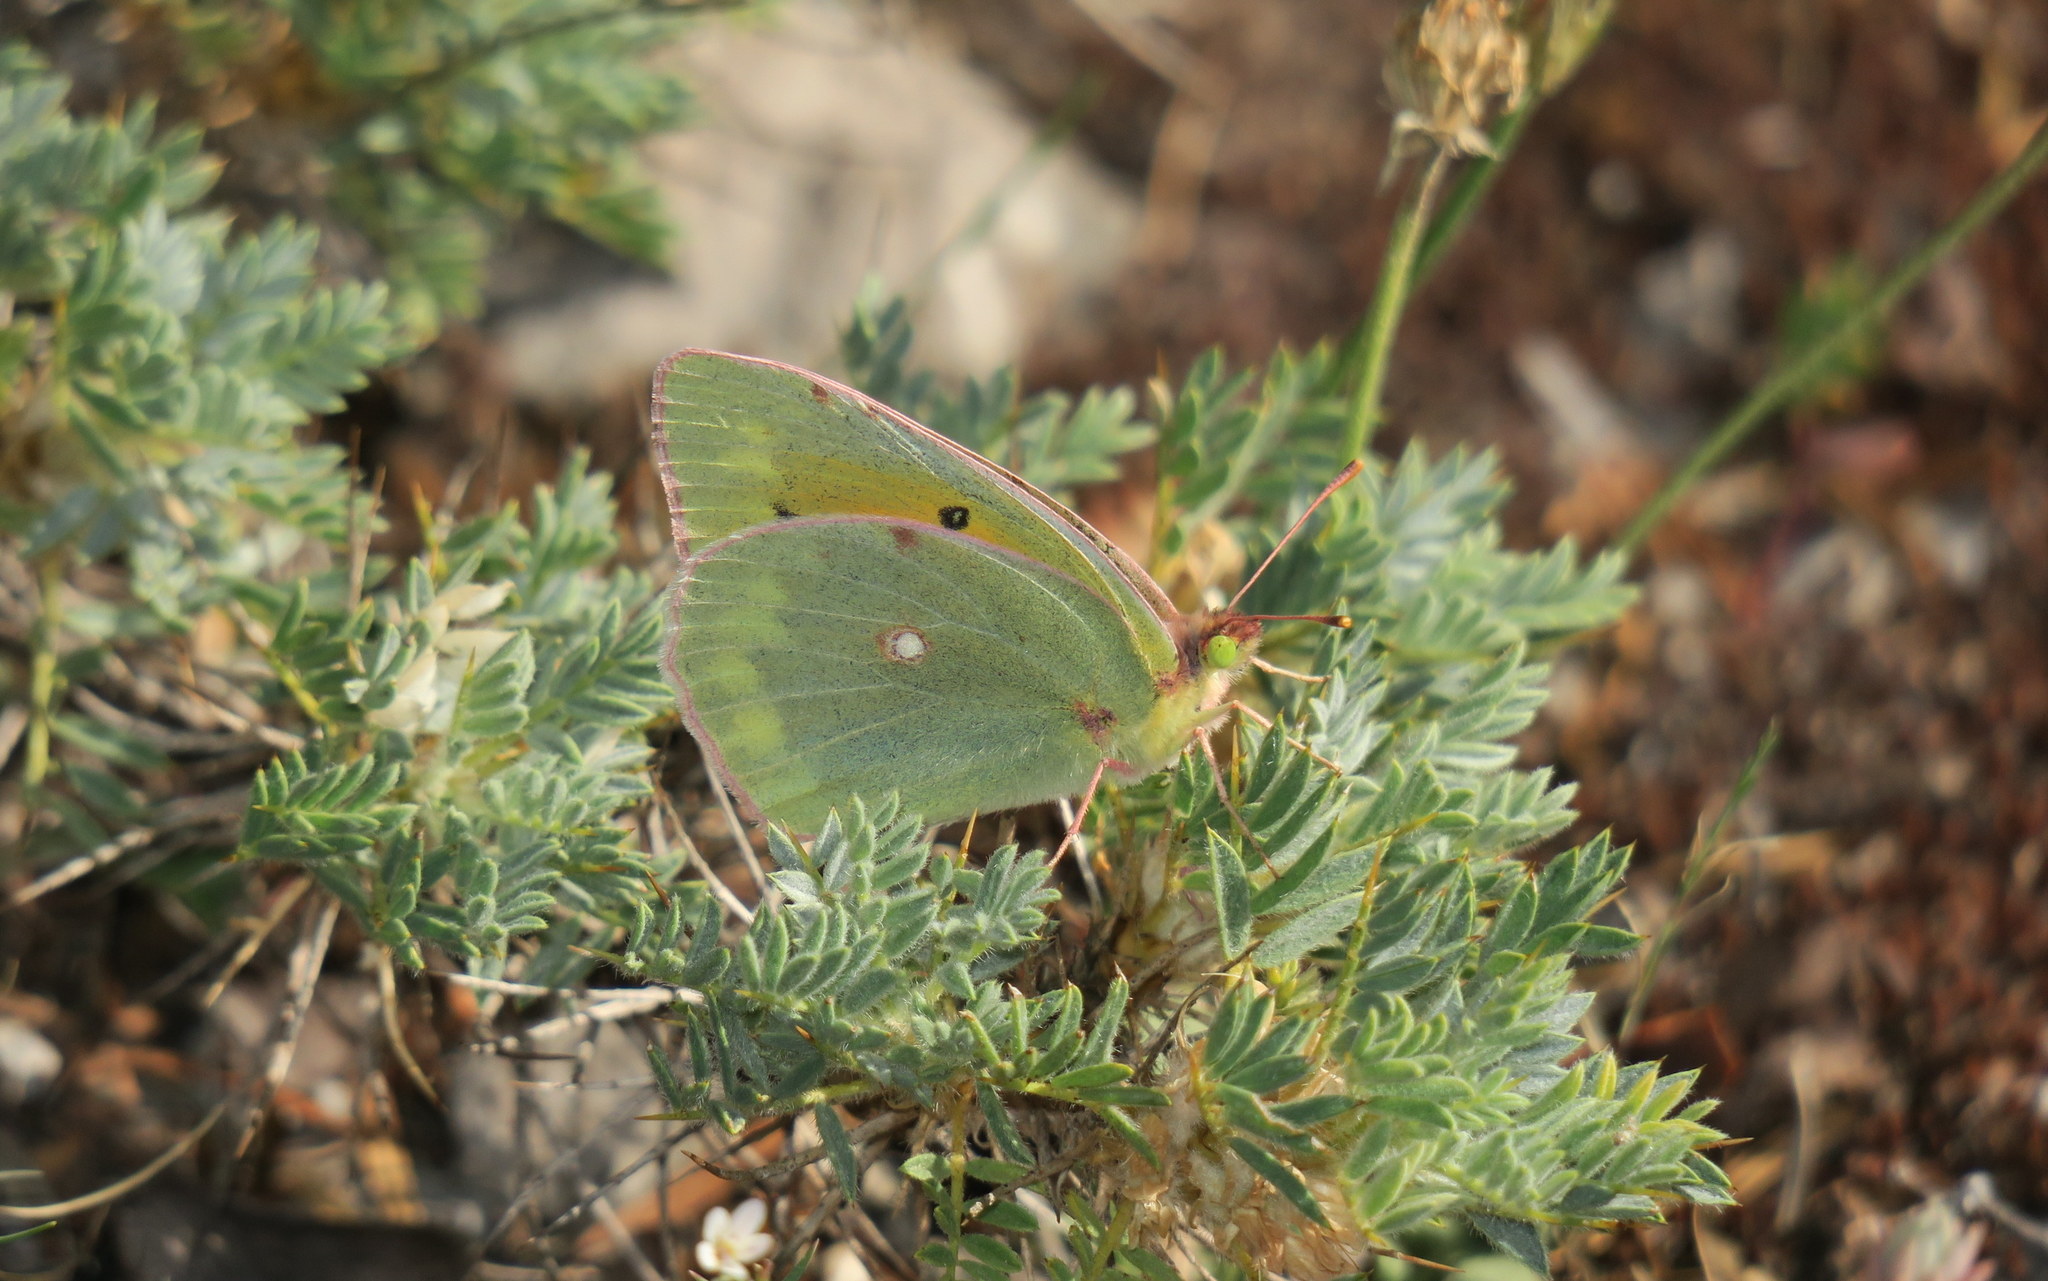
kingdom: Animalia
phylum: Arthropoda
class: Insecta
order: Lepidoptera
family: Pieridae
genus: Colias
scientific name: Colias aurorina
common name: Greek clouded yellow
